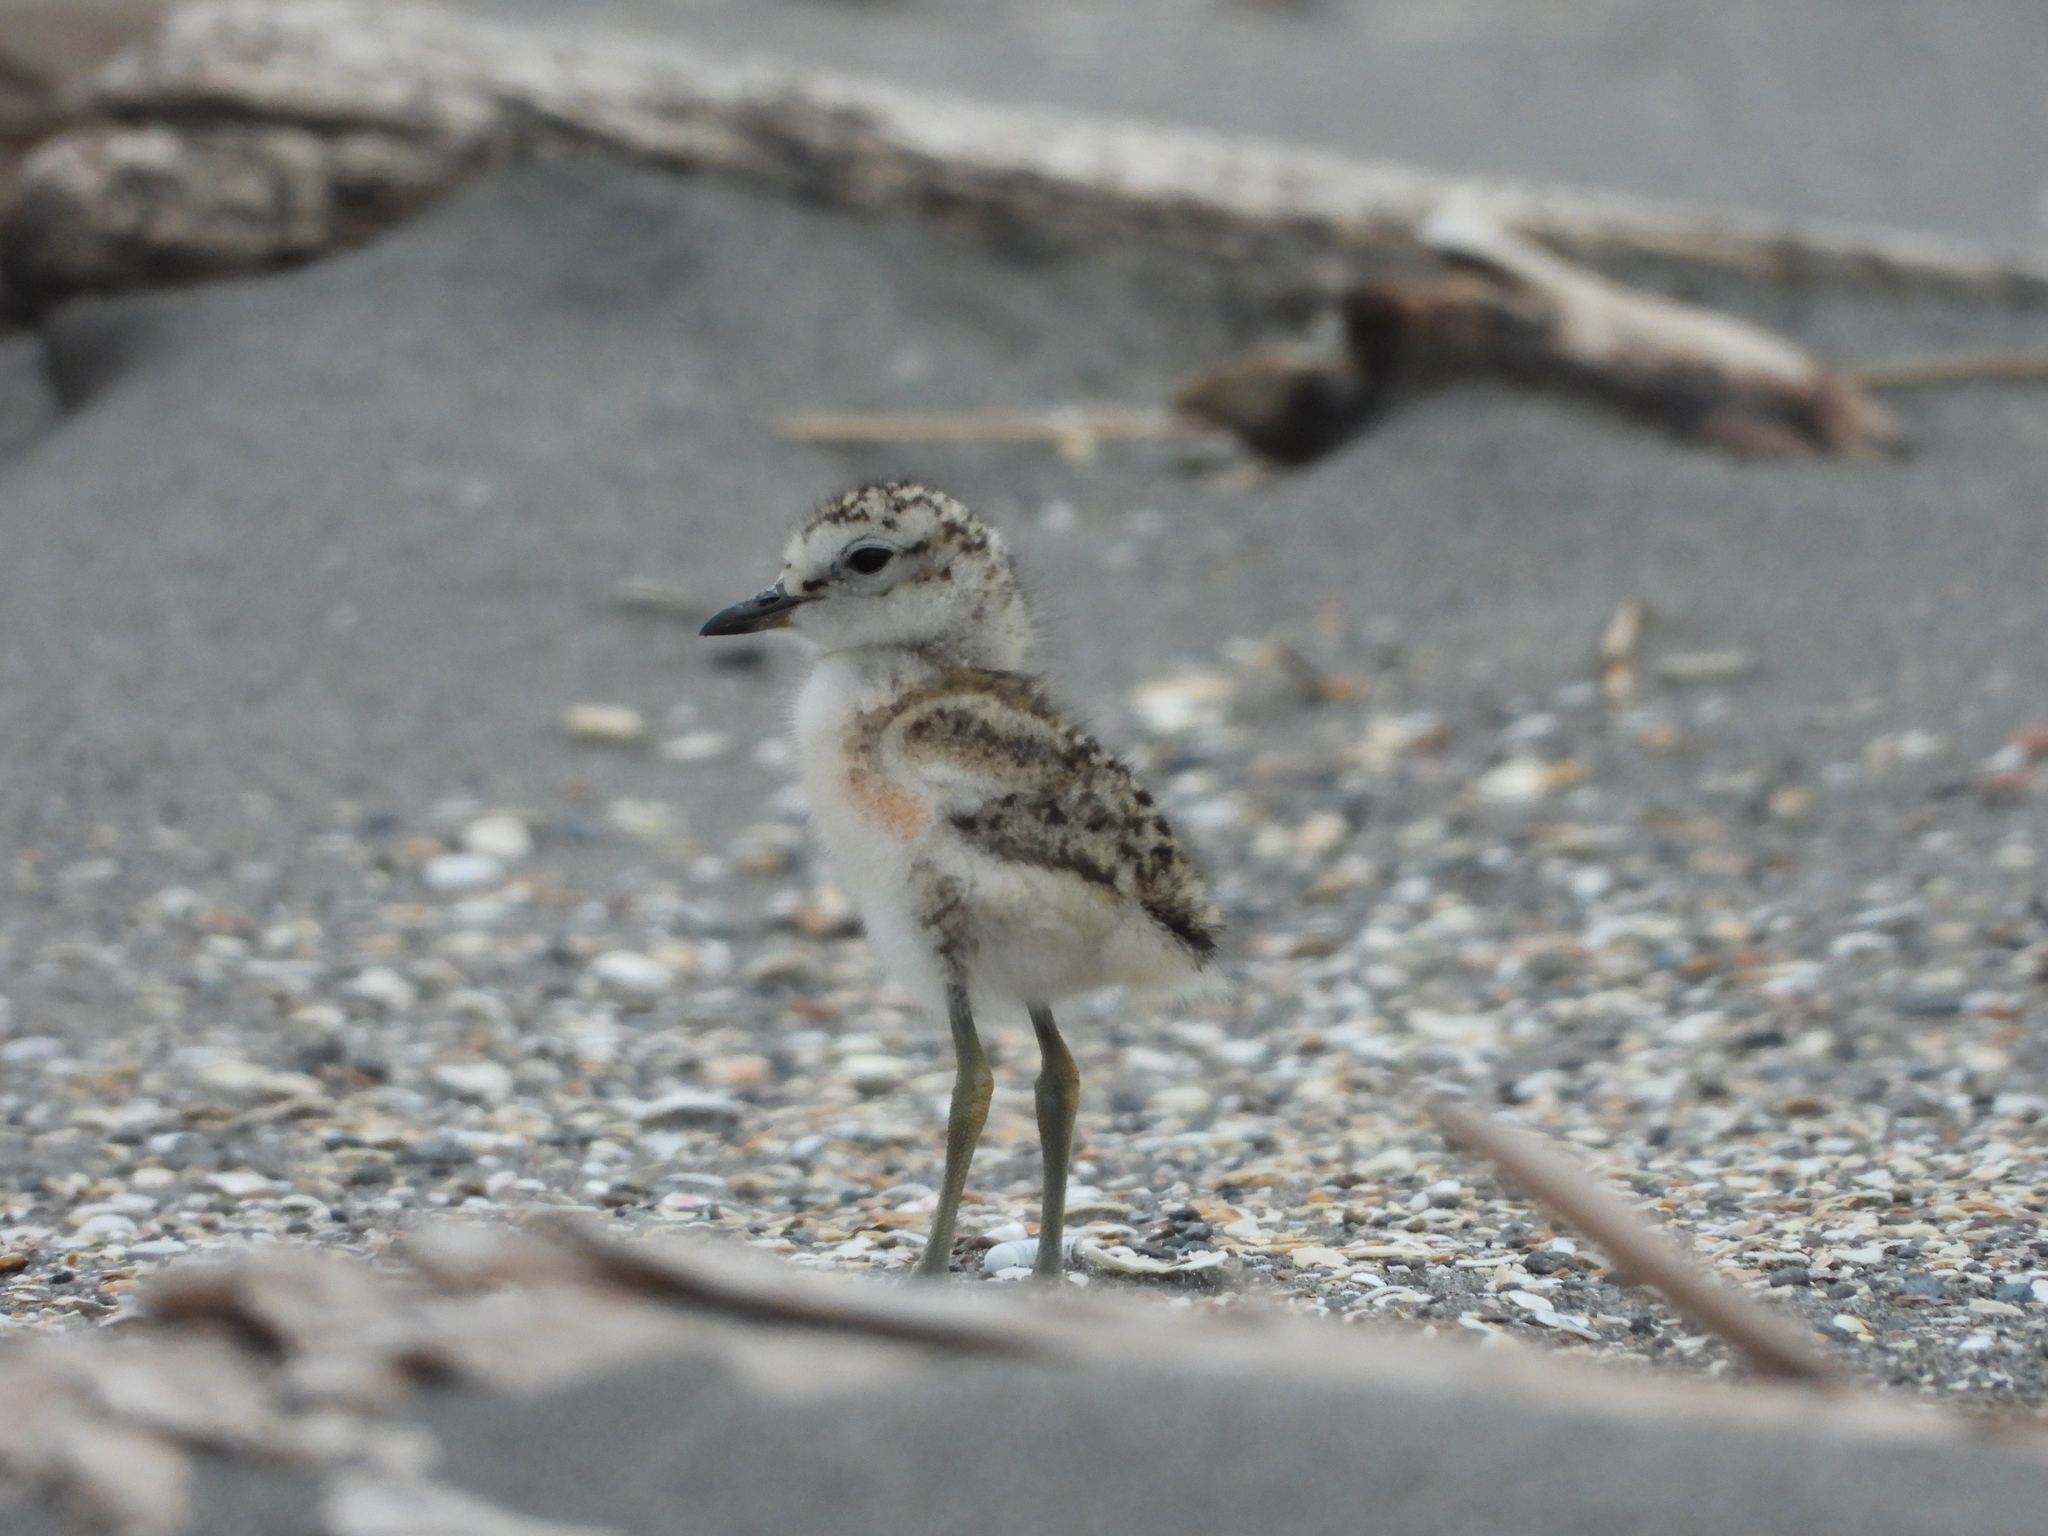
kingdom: Animalia
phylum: Chordata
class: Aves
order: Charadriiformes
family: Charadriidae
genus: Anarhynchus
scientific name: Anarhynchus
